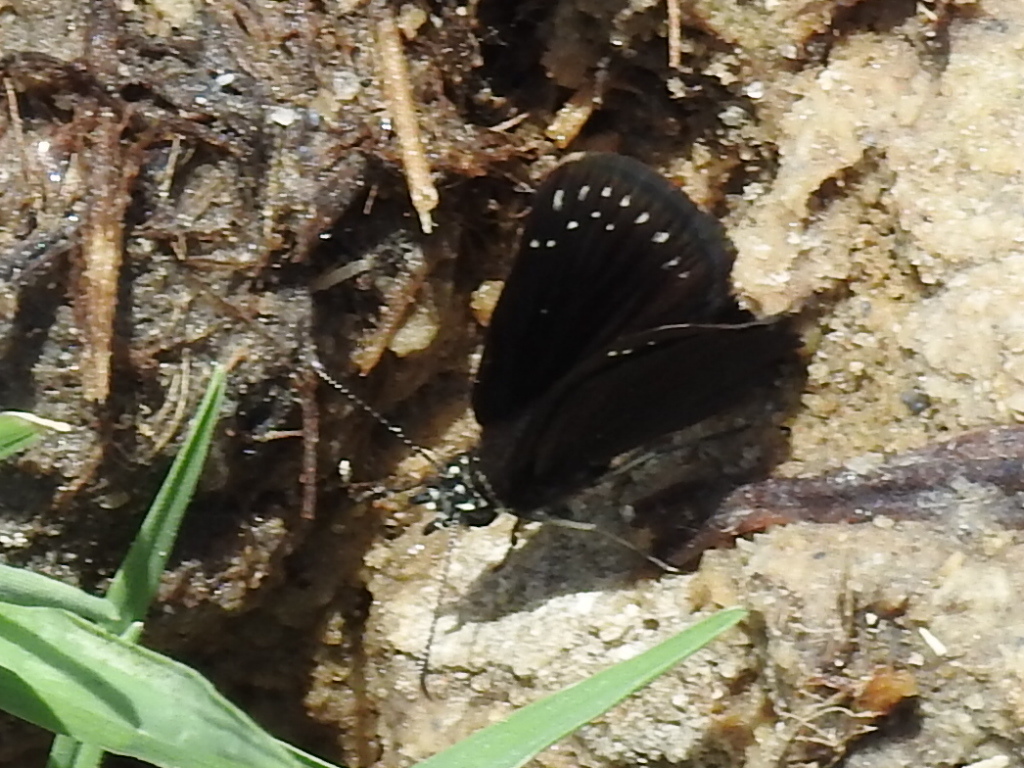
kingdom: Animalia
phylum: Arthropoda
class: Insecta
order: Lepidoptera
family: Hesperiidae
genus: Pholisora
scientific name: Pholisora catullus
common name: Common sootywing
